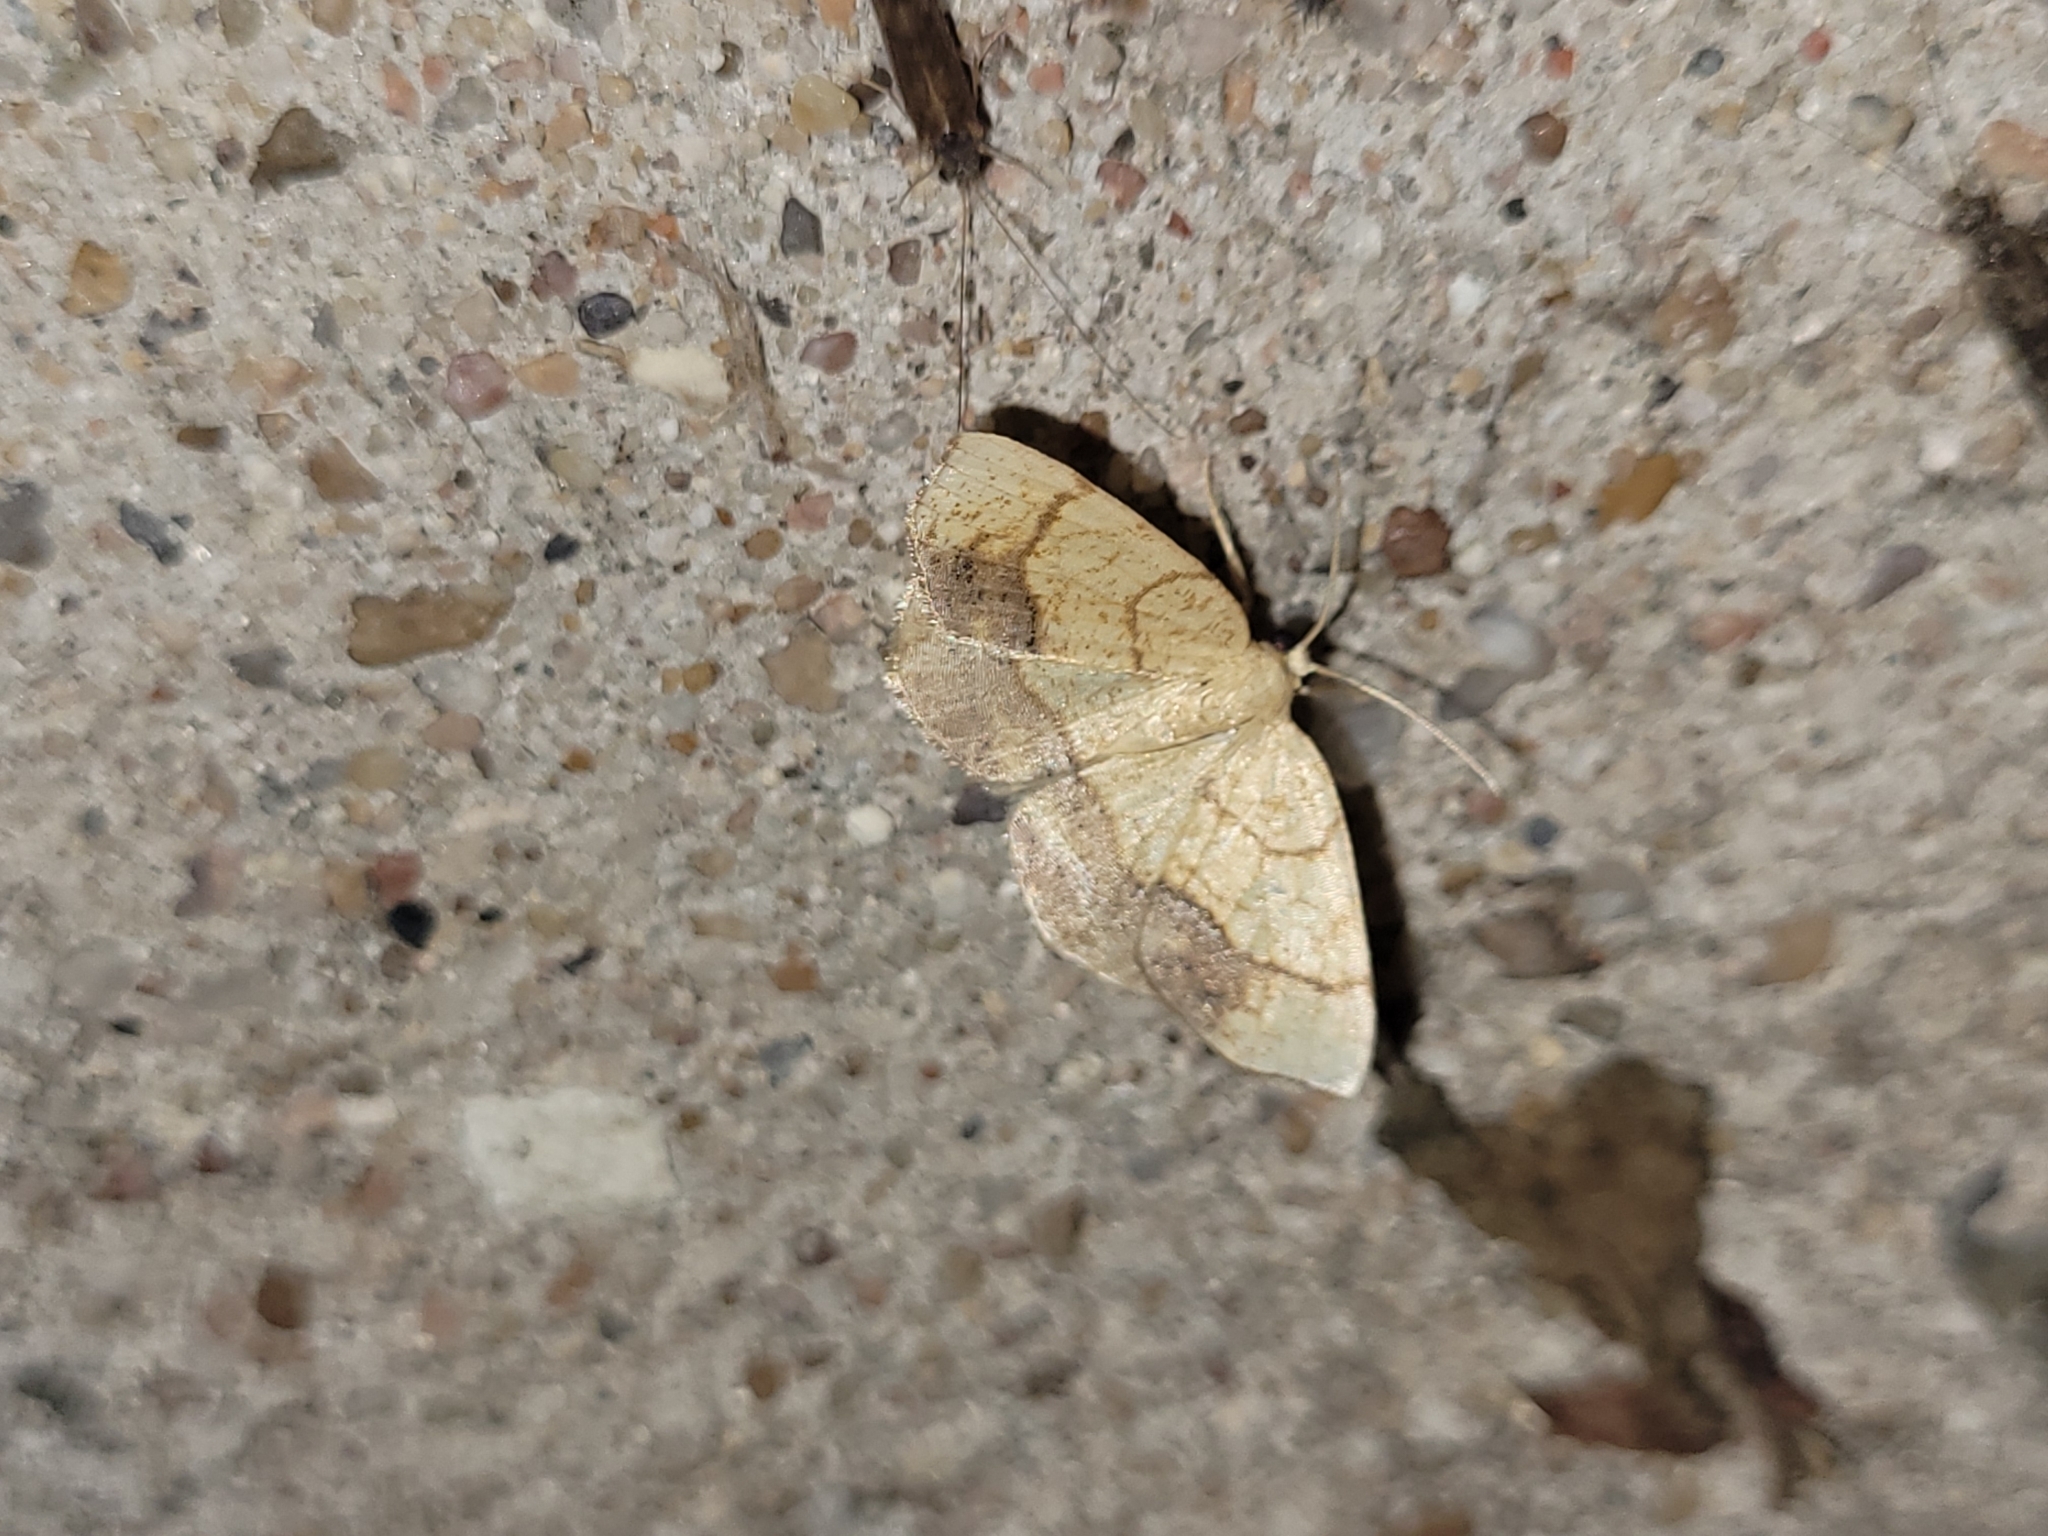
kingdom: Animalia
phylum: Arthropoda
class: Insecta
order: Lepidoptera
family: Geometridae
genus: Nematocampa
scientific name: Nematocampa resistaria
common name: Horned spanworm moth
